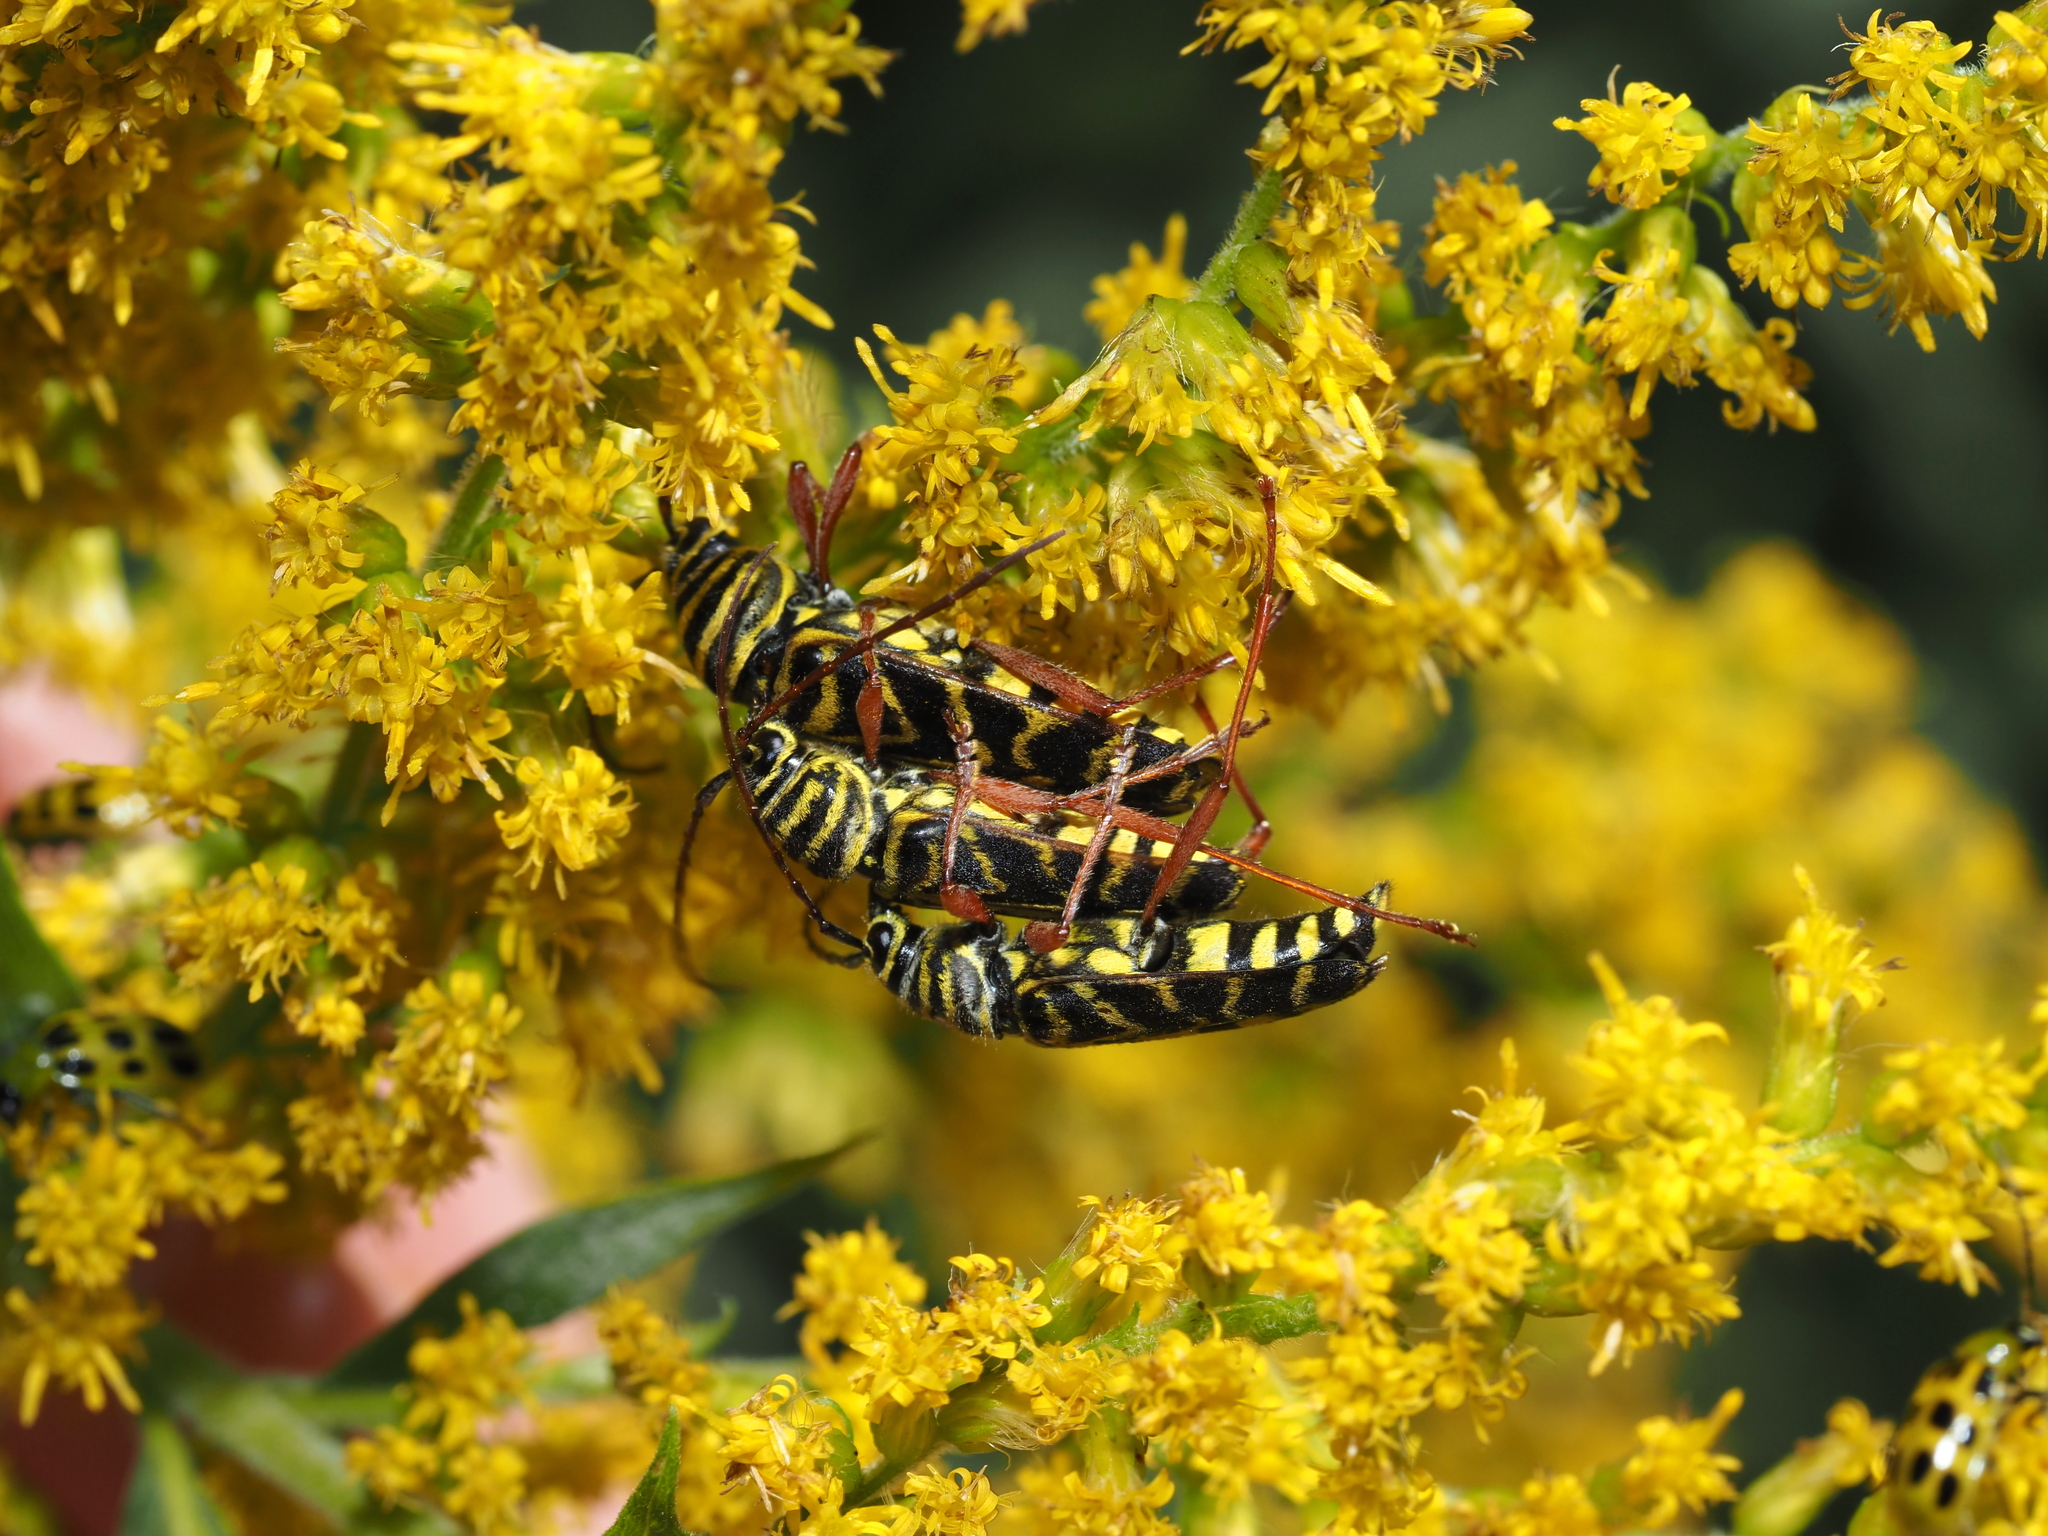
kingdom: Animalia
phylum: Arthropoda
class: Insecta
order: Coleoptera
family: Cerambycidae
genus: Megacyllene
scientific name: Megacyllene robiniae
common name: Locust borer
